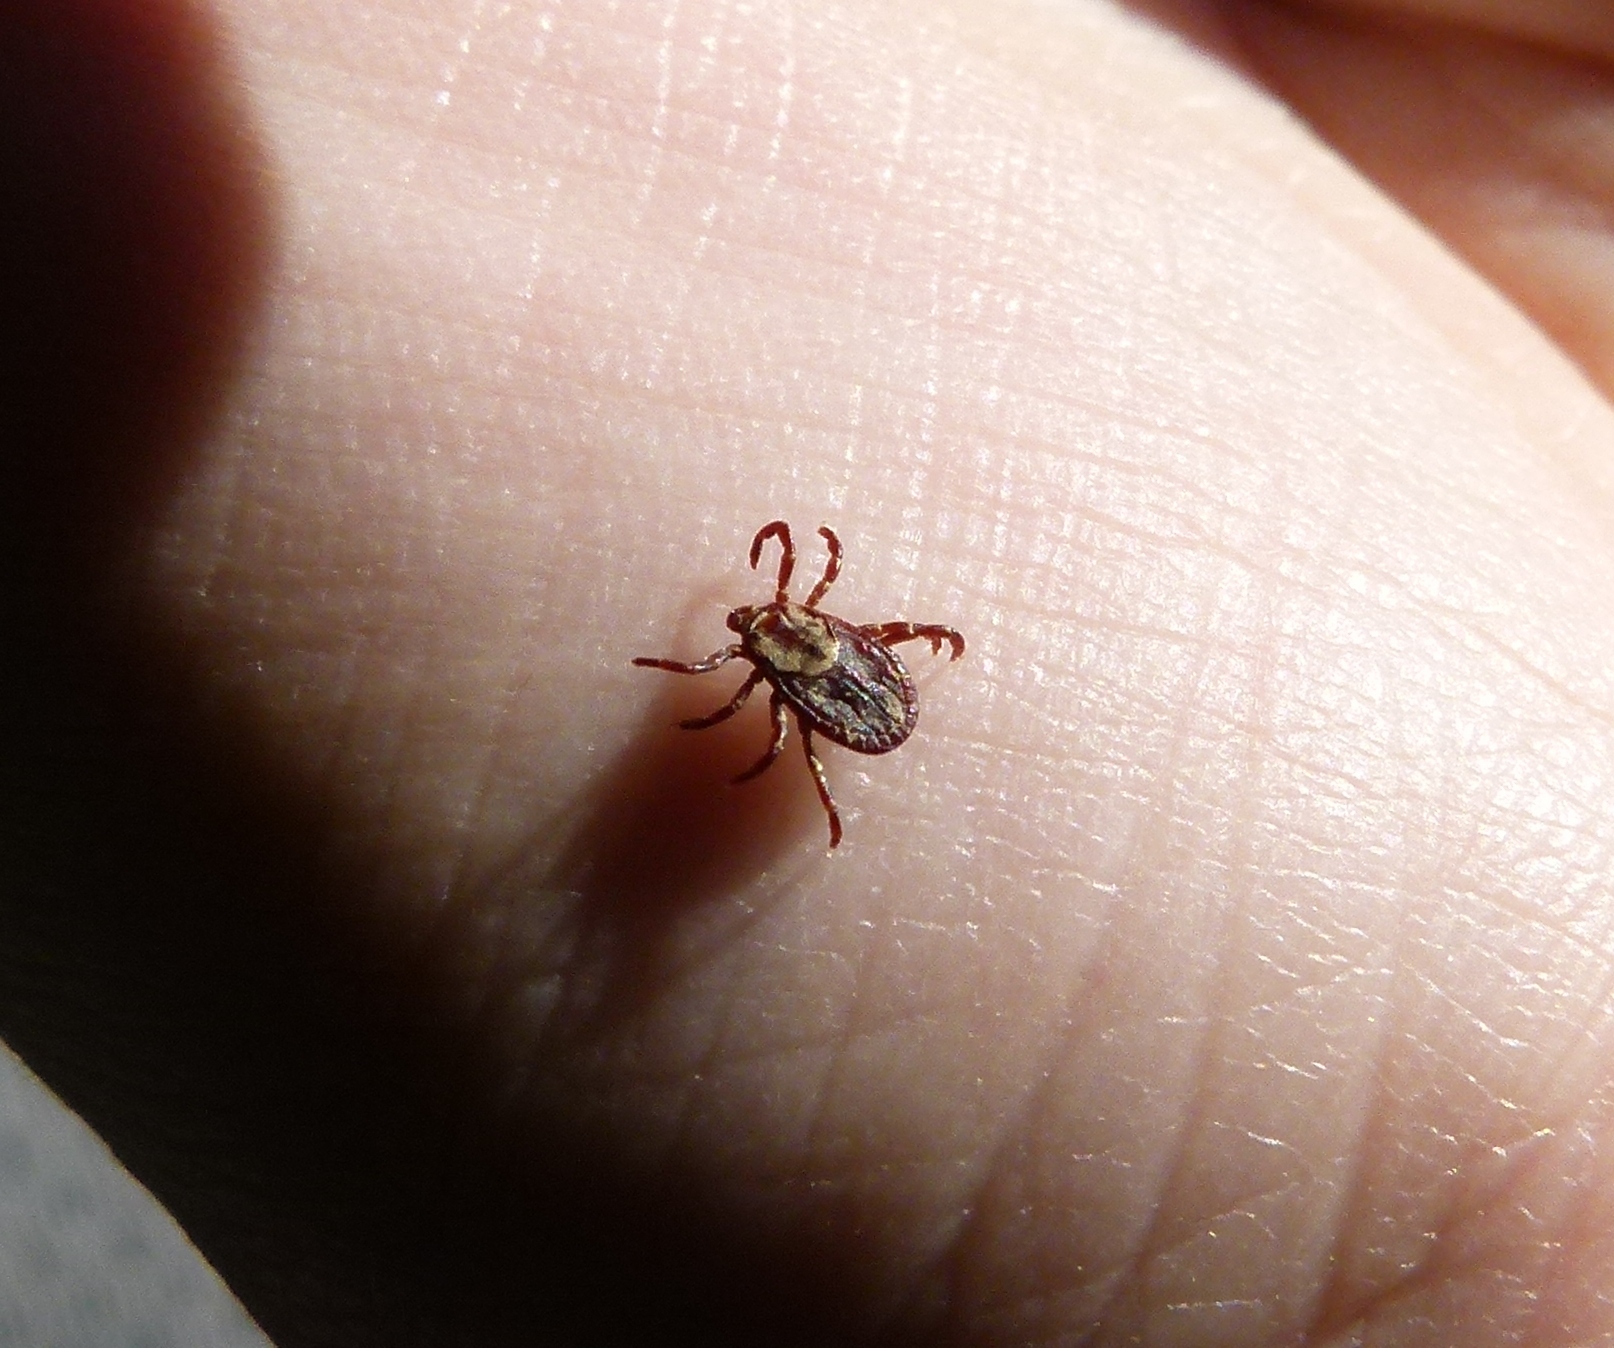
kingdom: Animalia
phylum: Arthropoda
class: Arachnida
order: Ixodida
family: Ixodidae
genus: Dermacentor
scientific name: Dermacentor variabilis
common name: American dog tick
